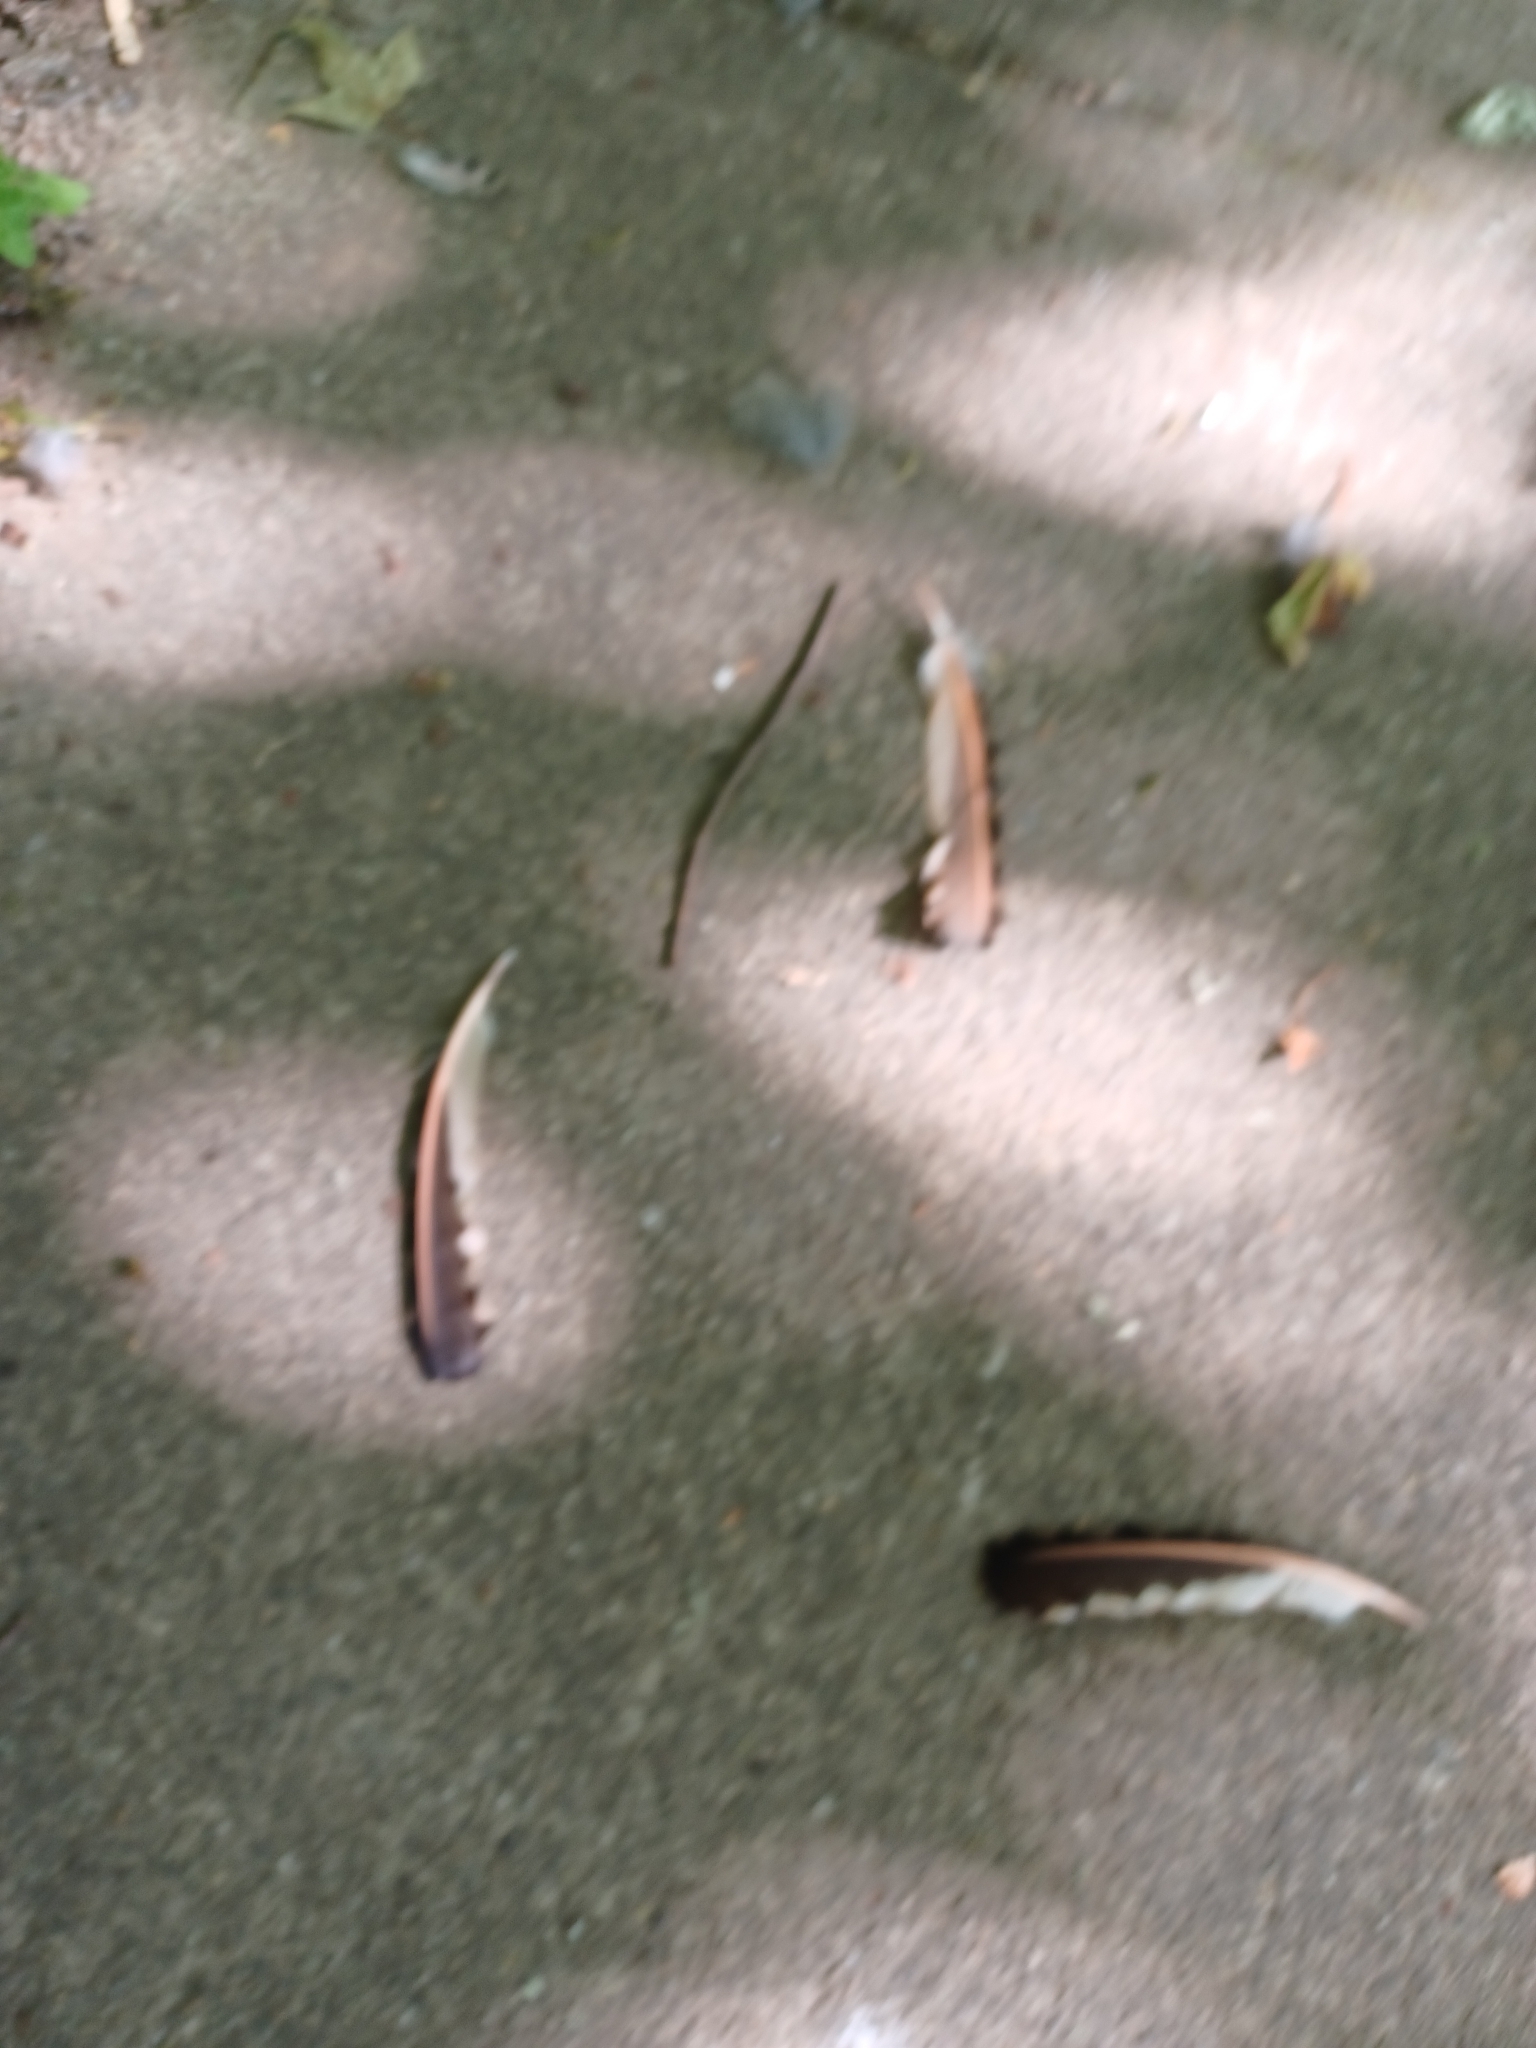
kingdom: Animalia
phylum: Chordata
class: Aves
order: Piciformes
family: Picidae
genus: Colaptes
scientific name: Colaptes auratus
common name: Northern flicker
